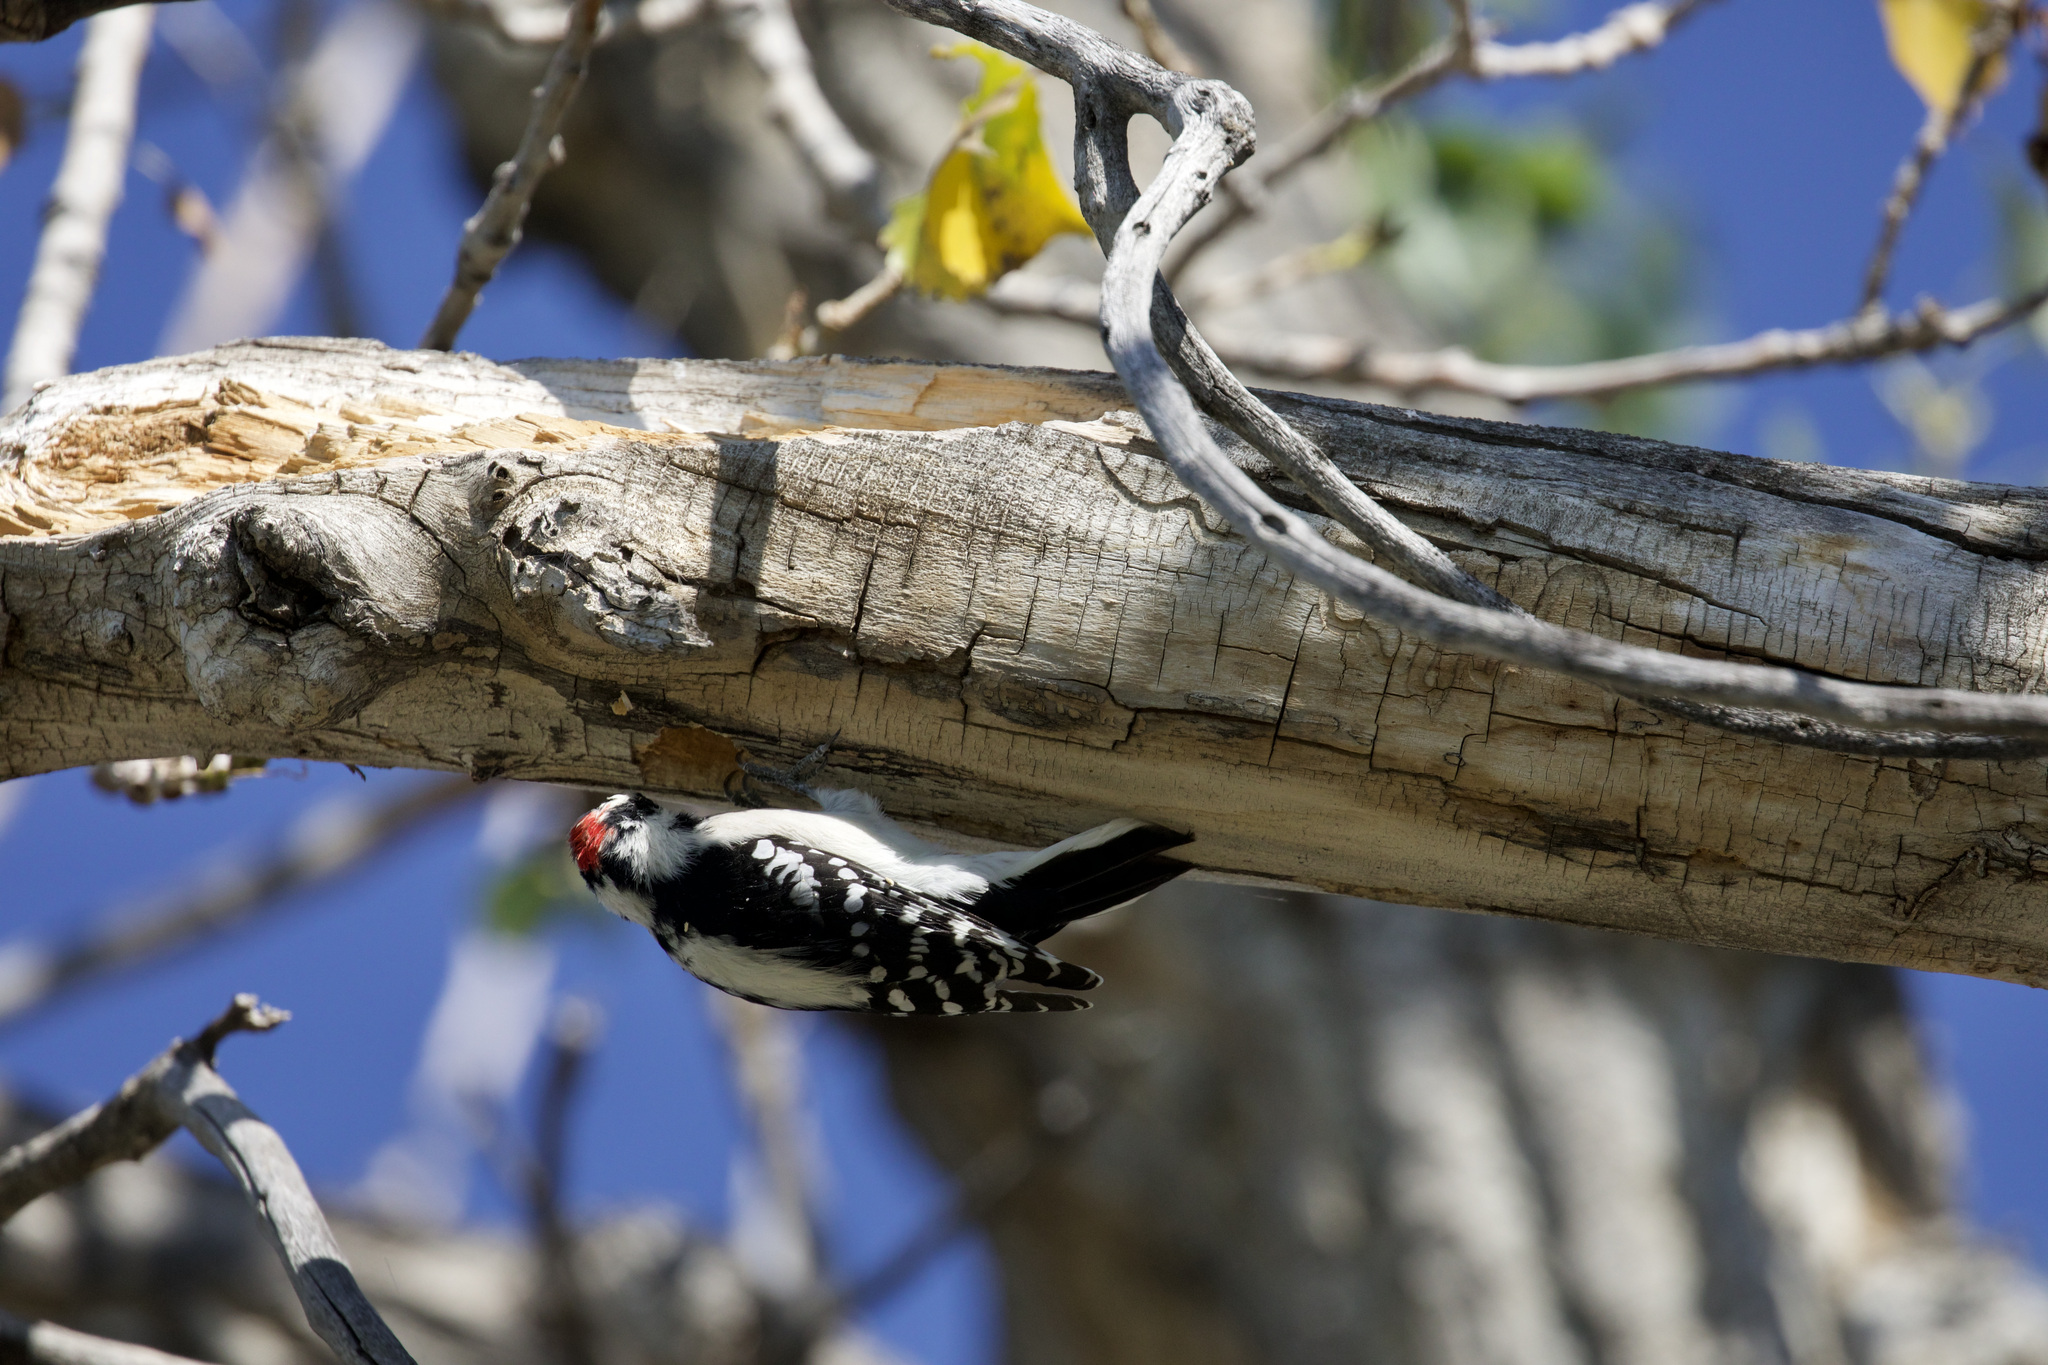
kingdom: Animalia
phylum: Chordata
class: Aves
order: Piciformes
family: Picidae
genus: Dryobates
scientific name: Dryobates pubescens
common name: Downy woodpecker
